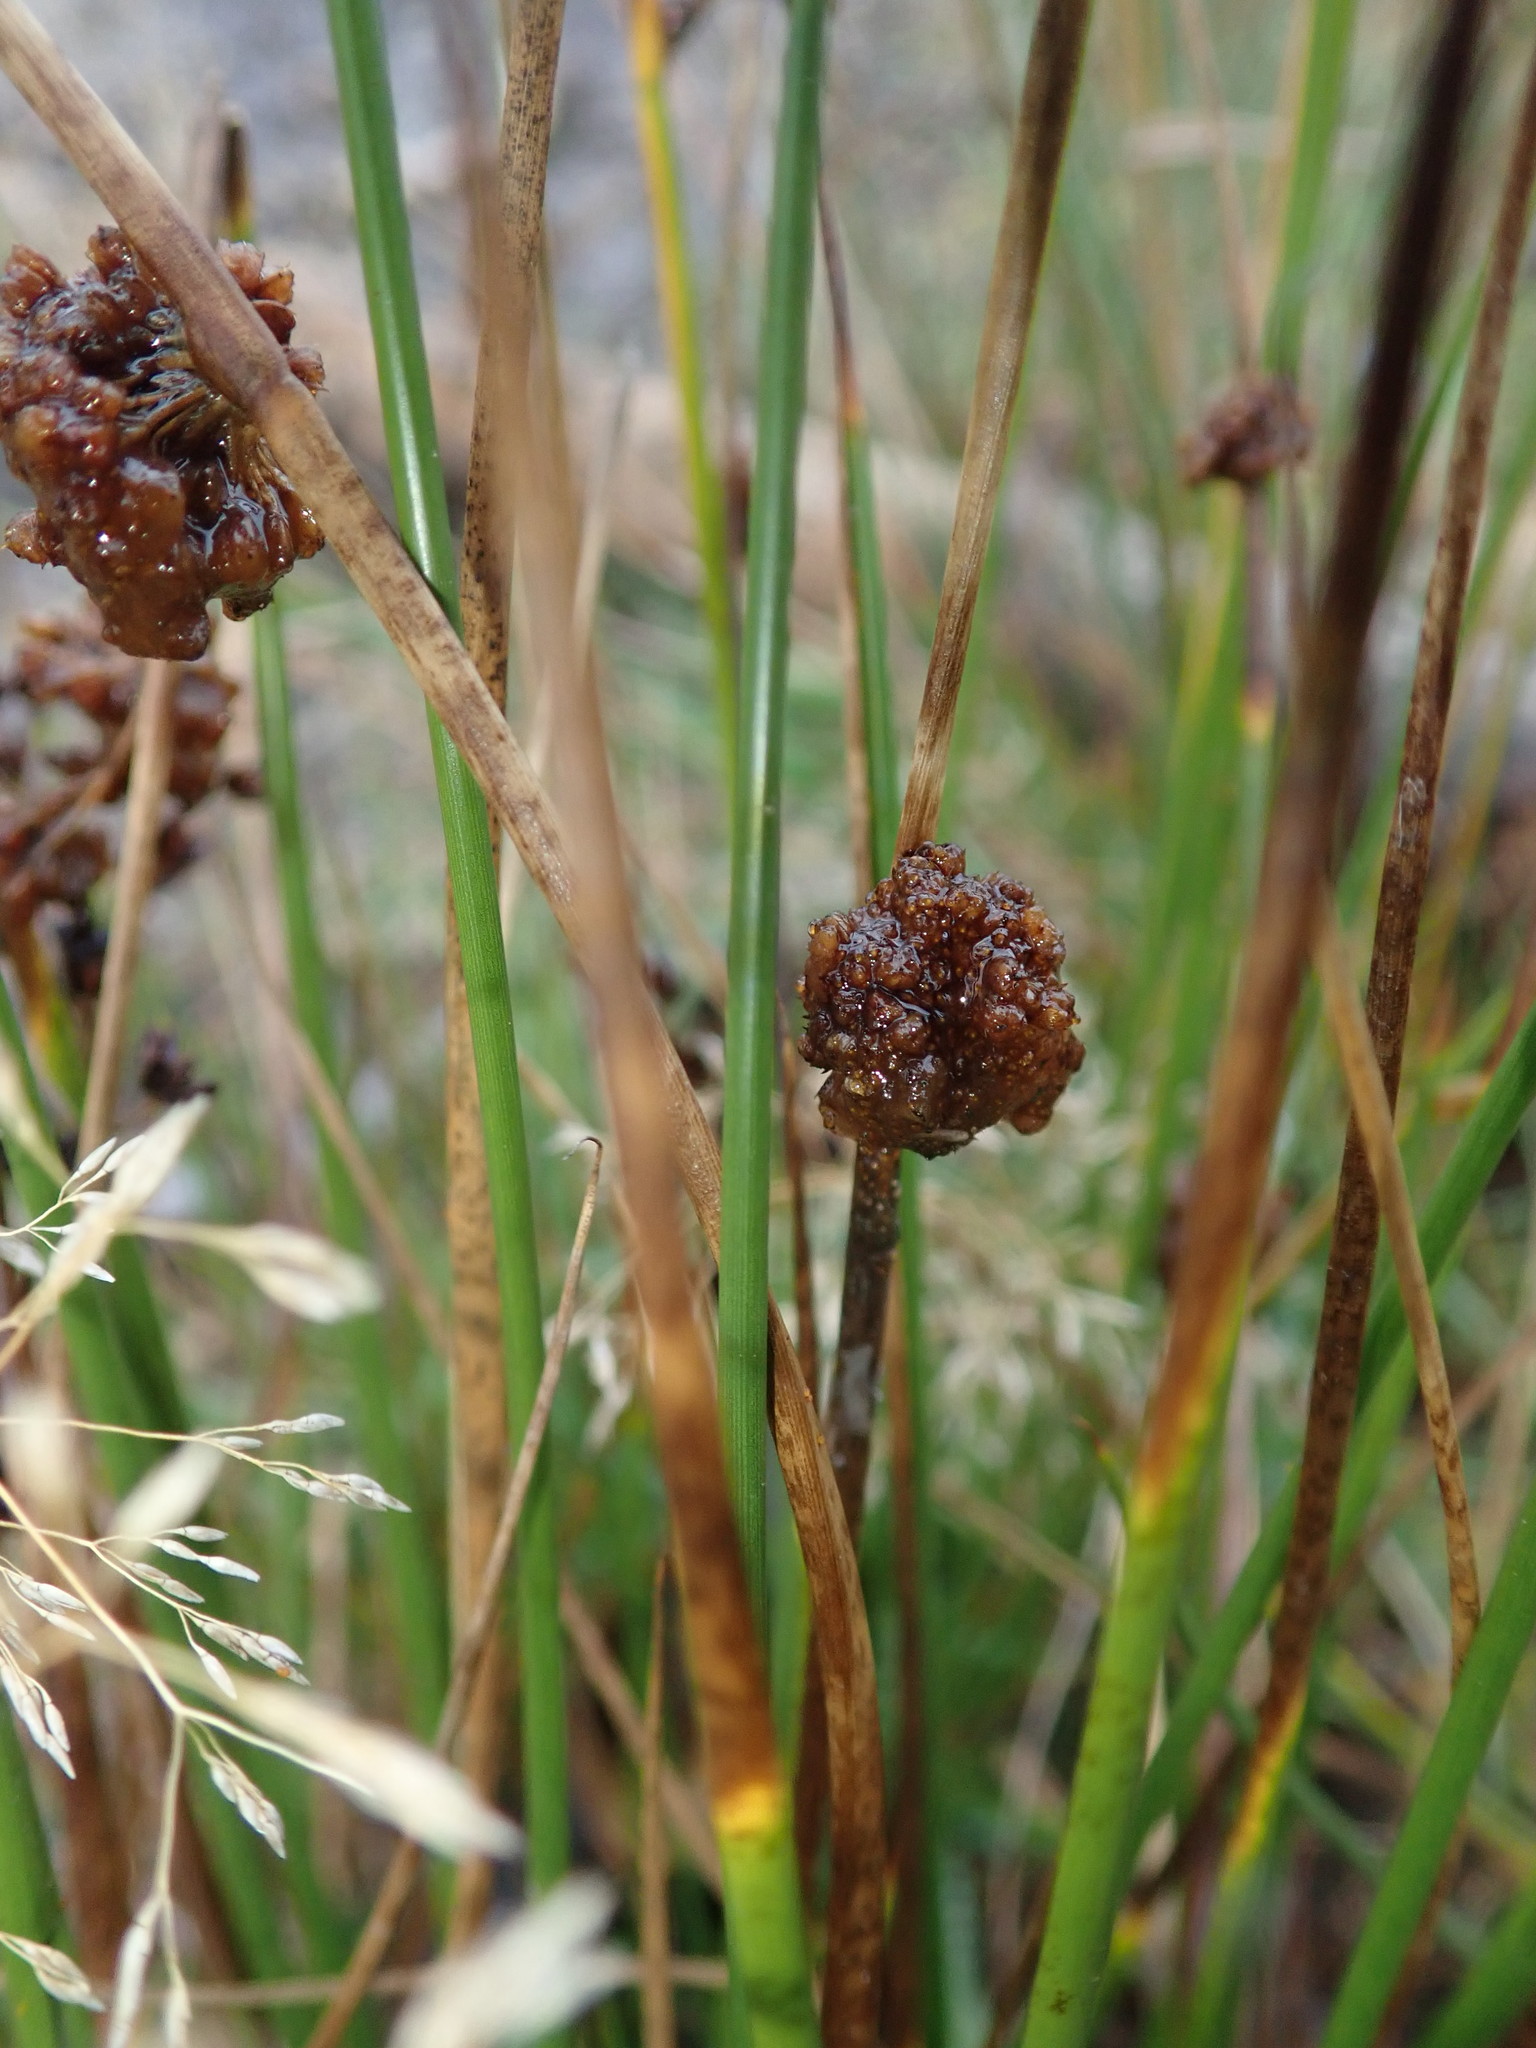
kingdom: Plantae
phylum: Tracheophyta
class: Liliopsida
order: Poales
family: Juncaceae
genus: Juncus
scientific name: Juncus effusus
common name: Soft rush
